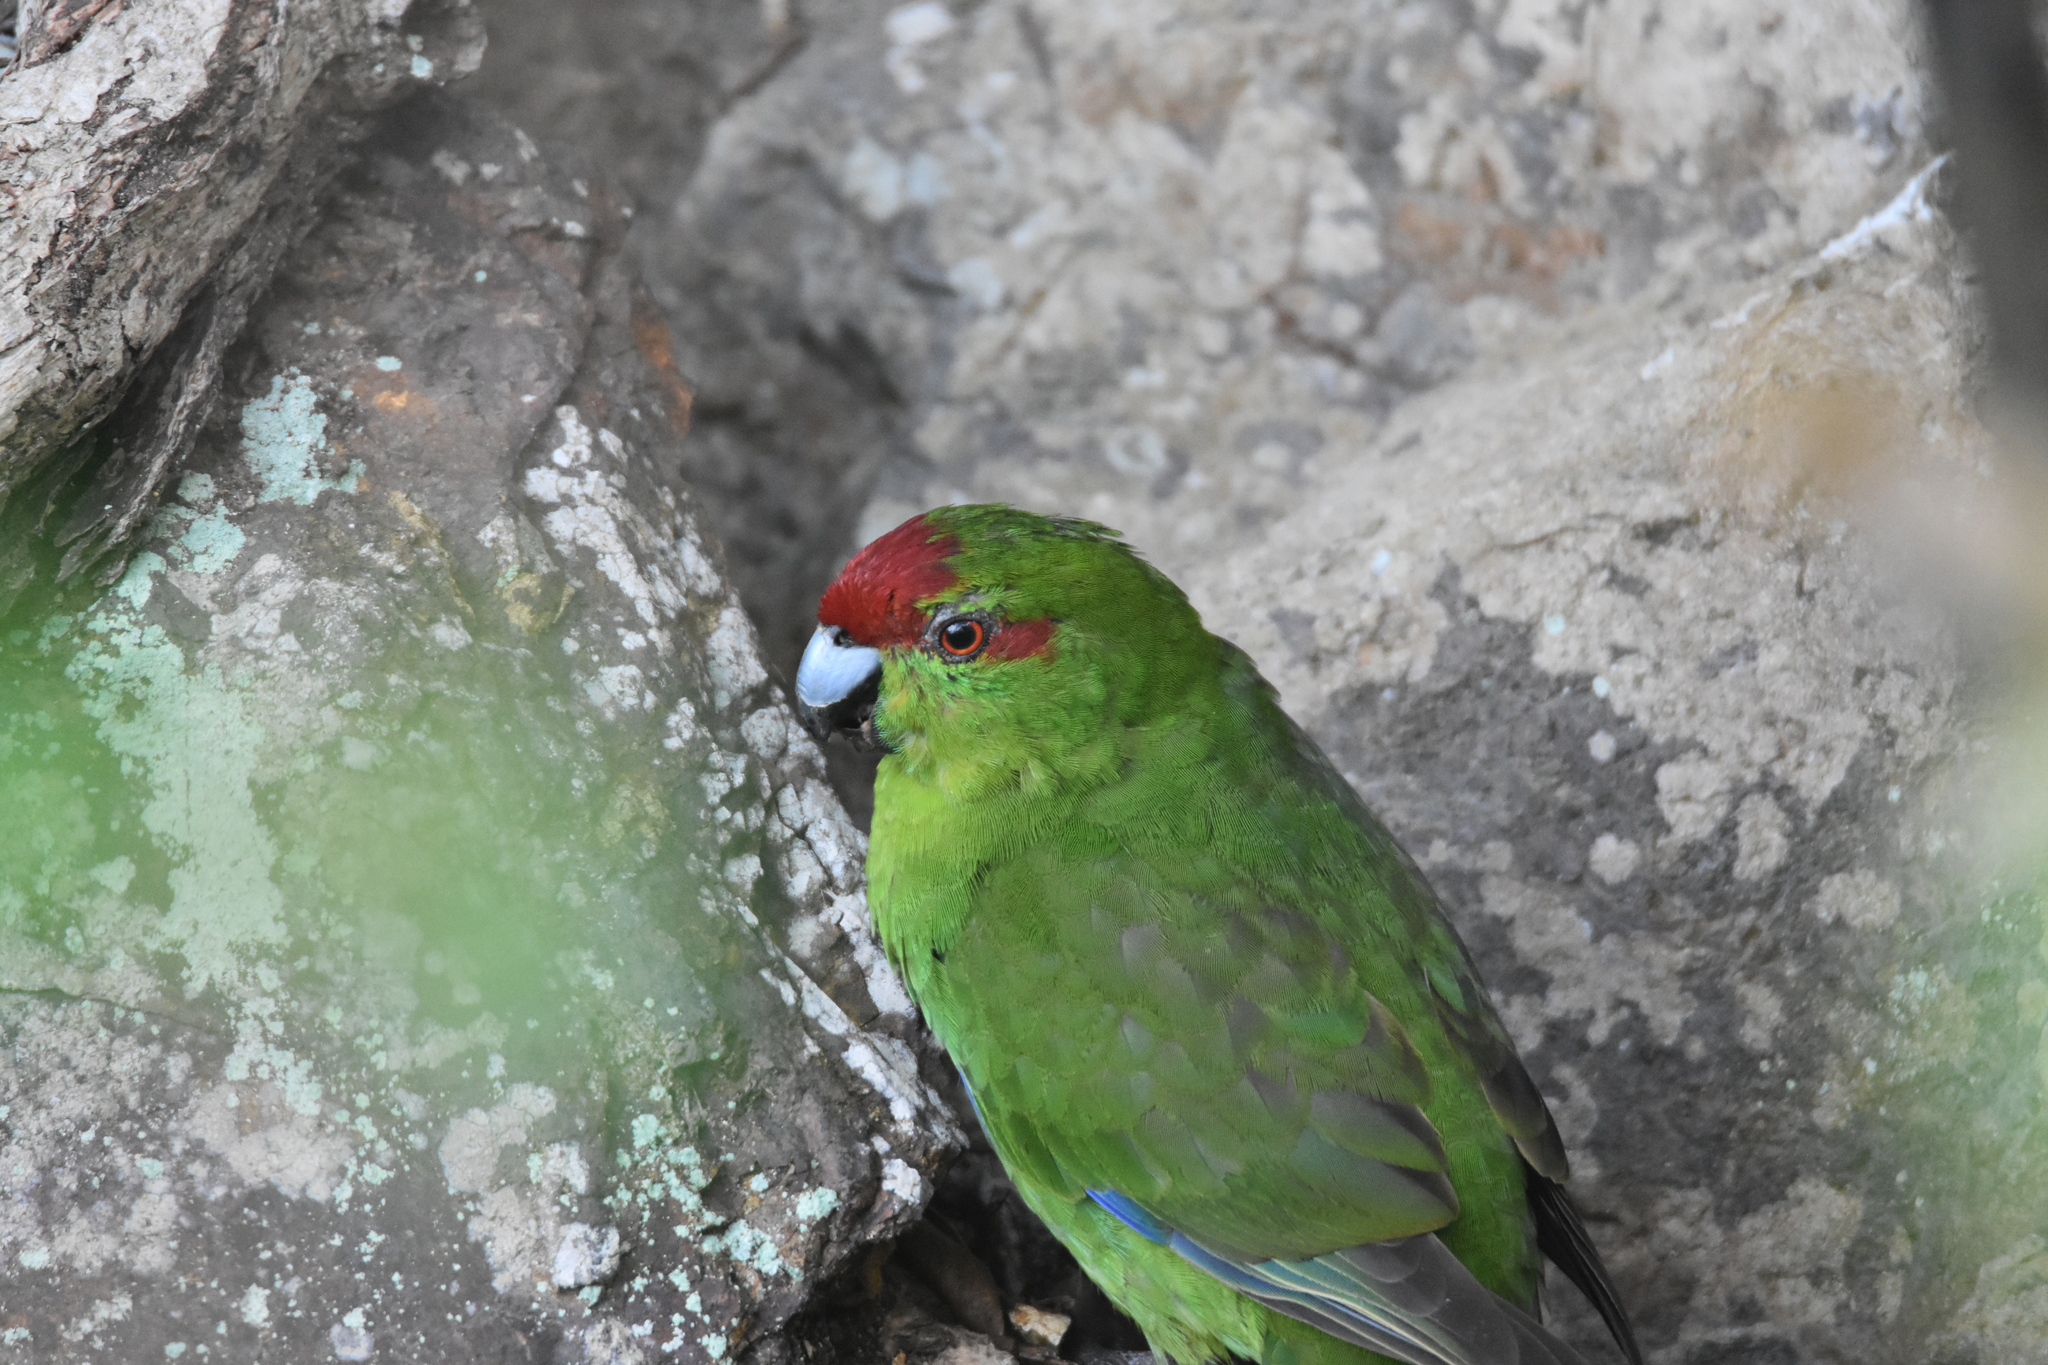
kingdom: Animalia
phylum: Chordata
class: Aves
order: Psittaciformes
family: Psittacidae
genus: Cyanoramphus
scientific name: Cyanoramphus novaezelandiae
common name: Red-fronted parakeet
